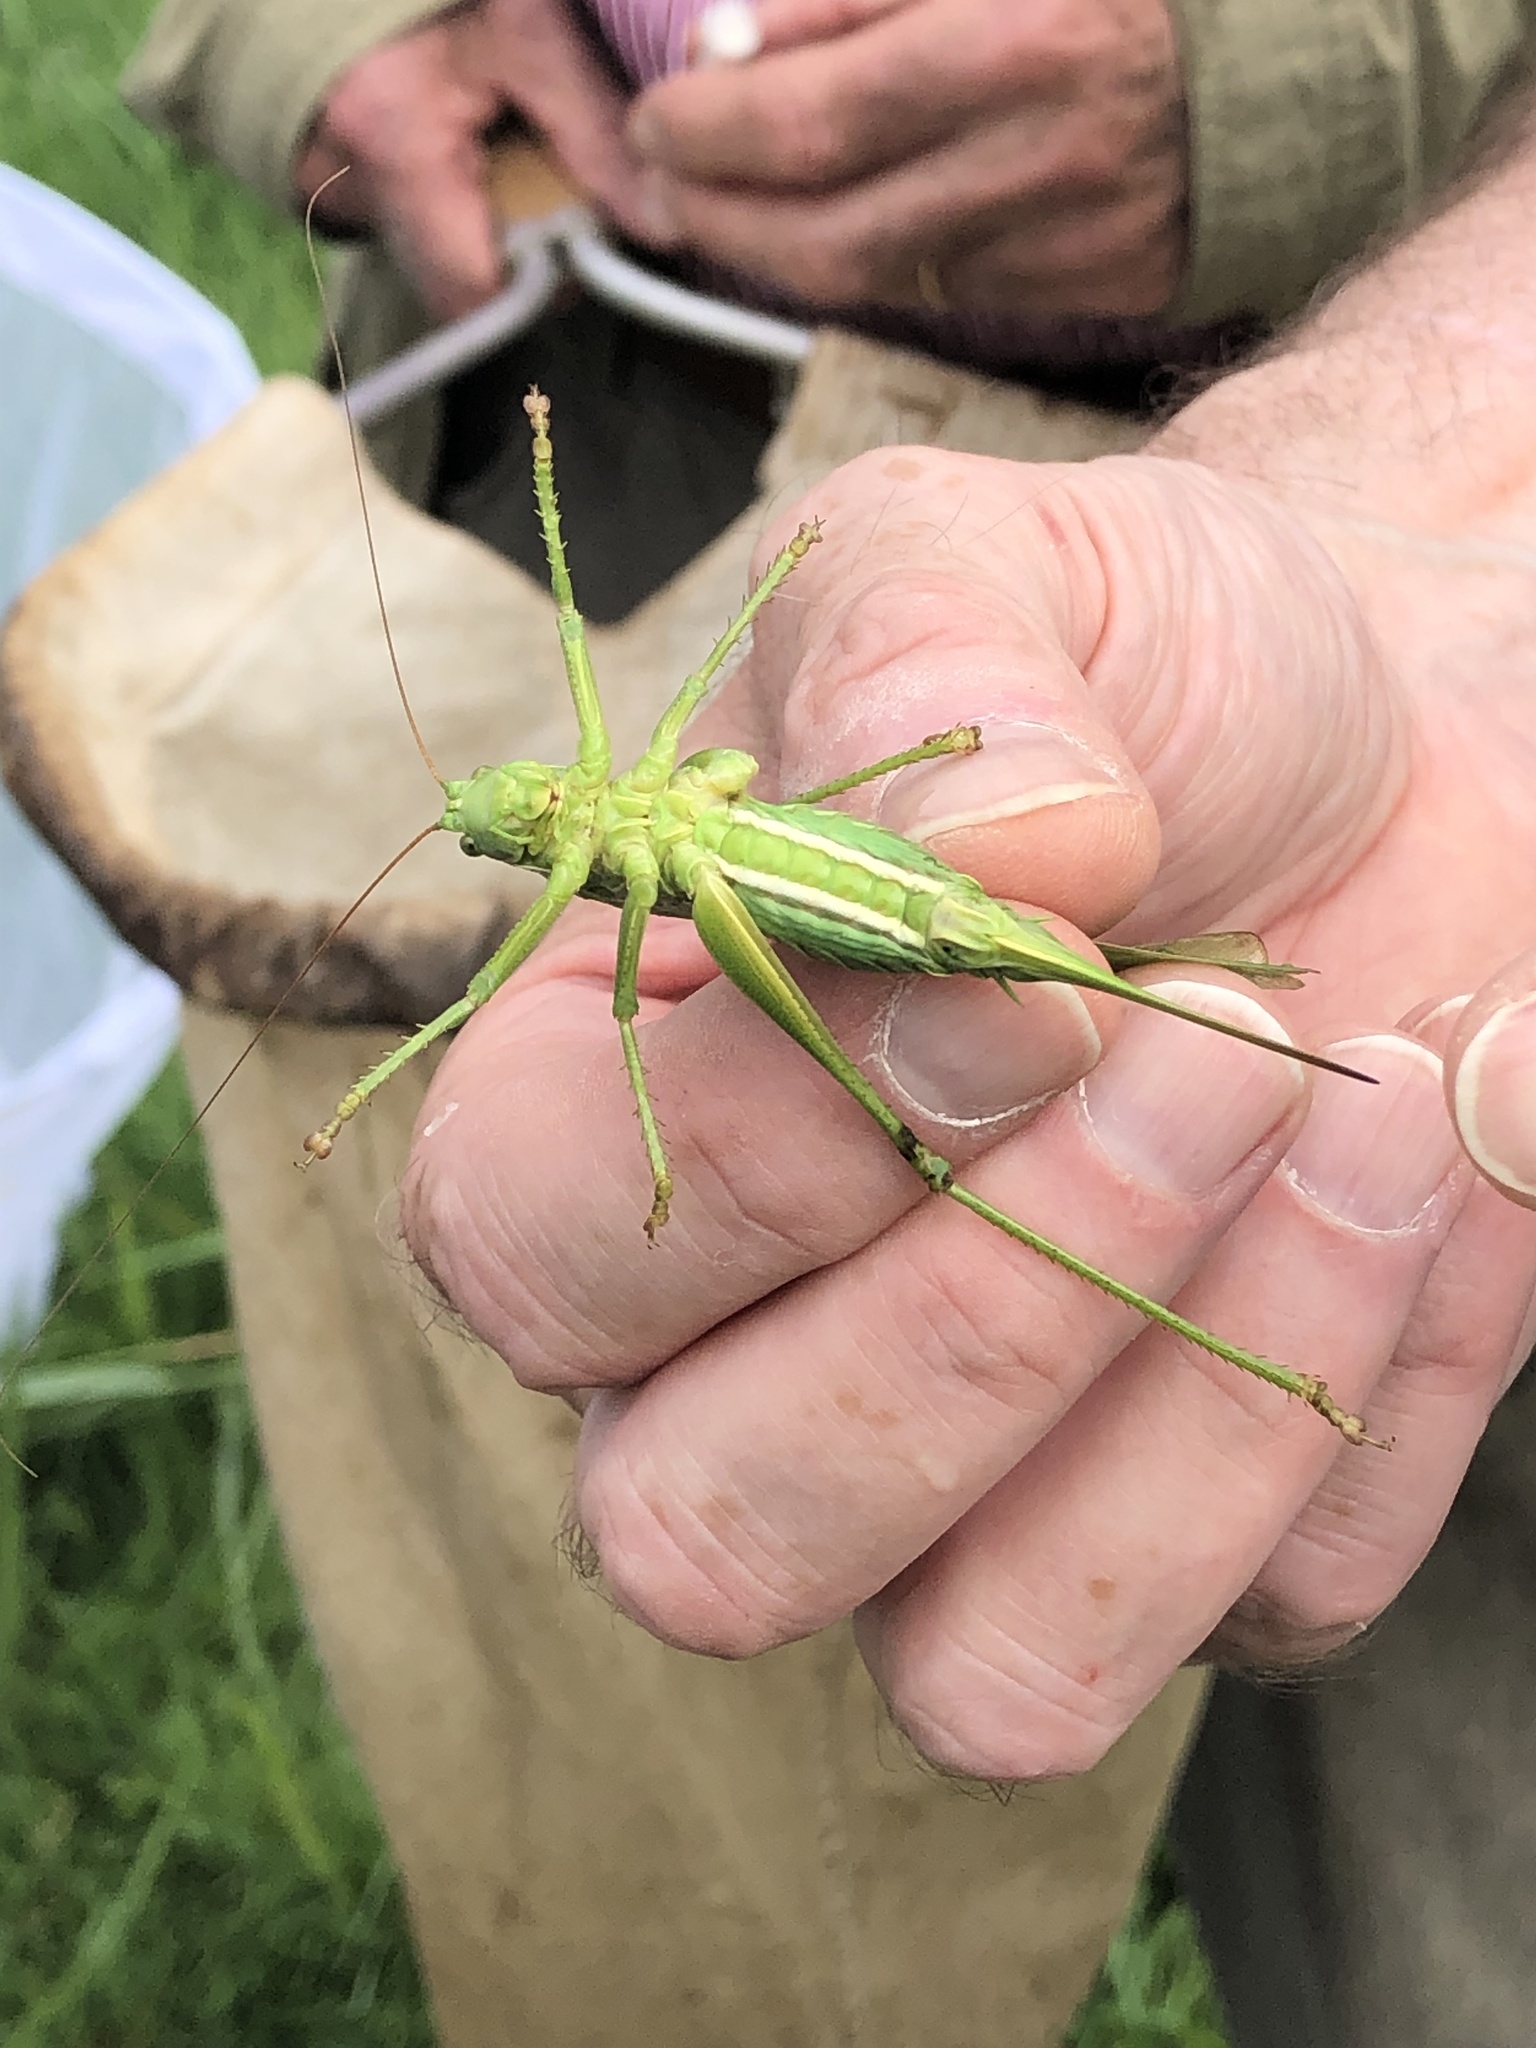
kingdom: Animalia
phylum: Arthropoda
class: Insecta
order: Orthoptera
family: Tettigoniidae
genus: Tettigonia
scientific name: Tettigonia viridissima
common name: Great green bush-cricket
